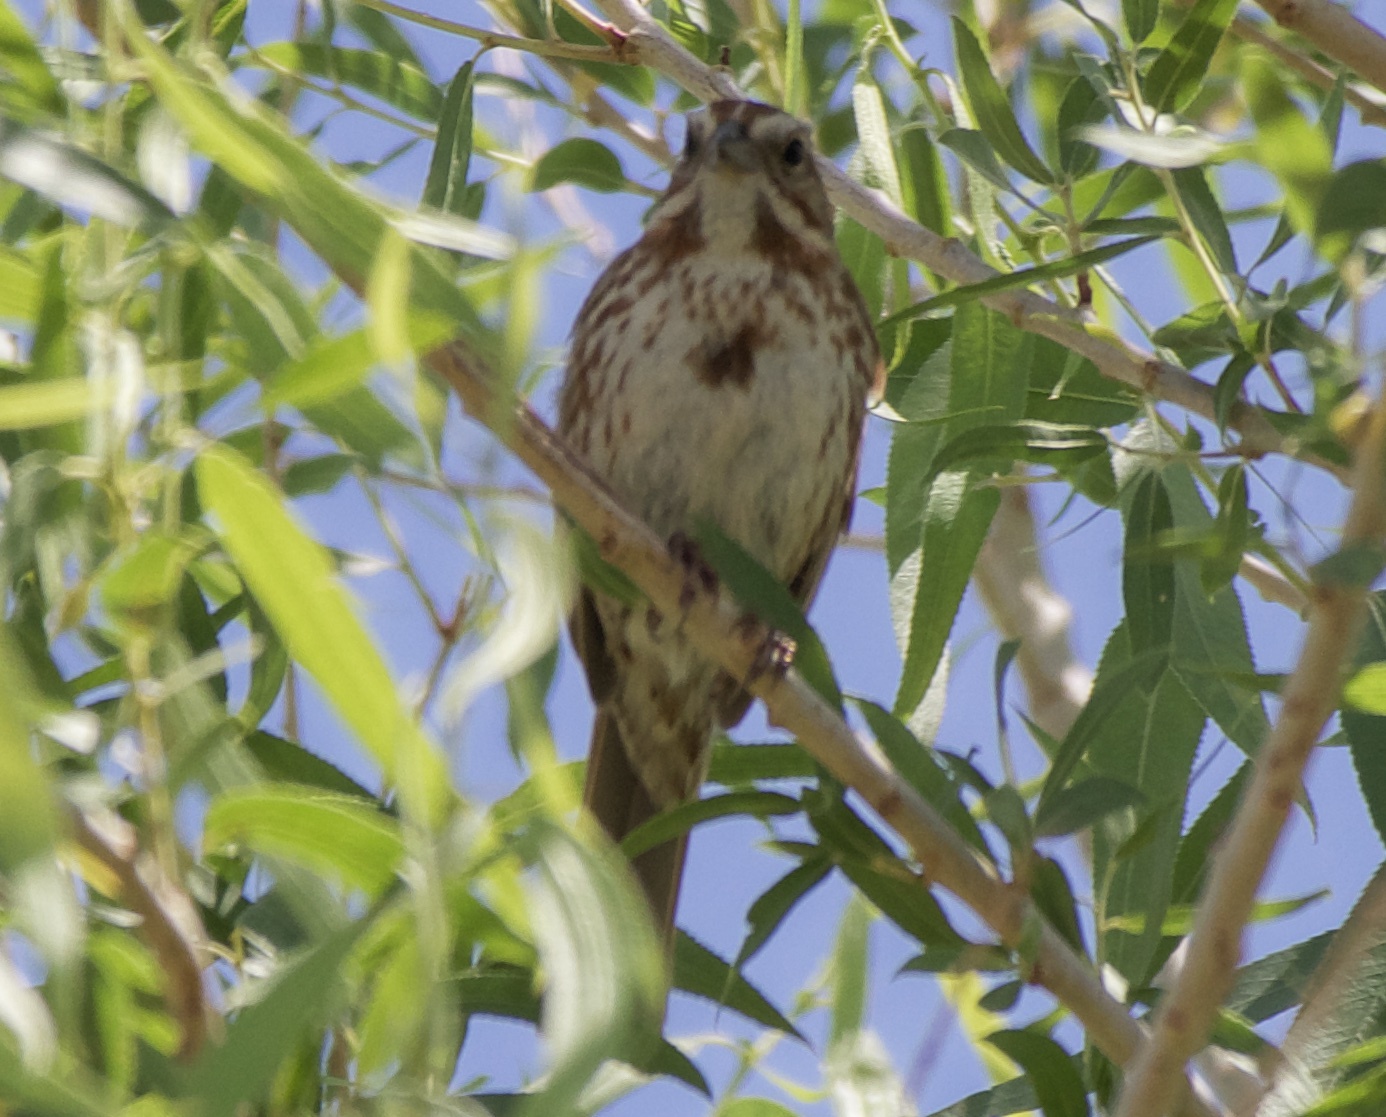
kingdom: Animalia
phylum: Chordata
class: Aves
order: Passeriformes
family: Passerellidae
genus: Melospiza
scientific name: Melospiza melodia
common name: Song sparrow
